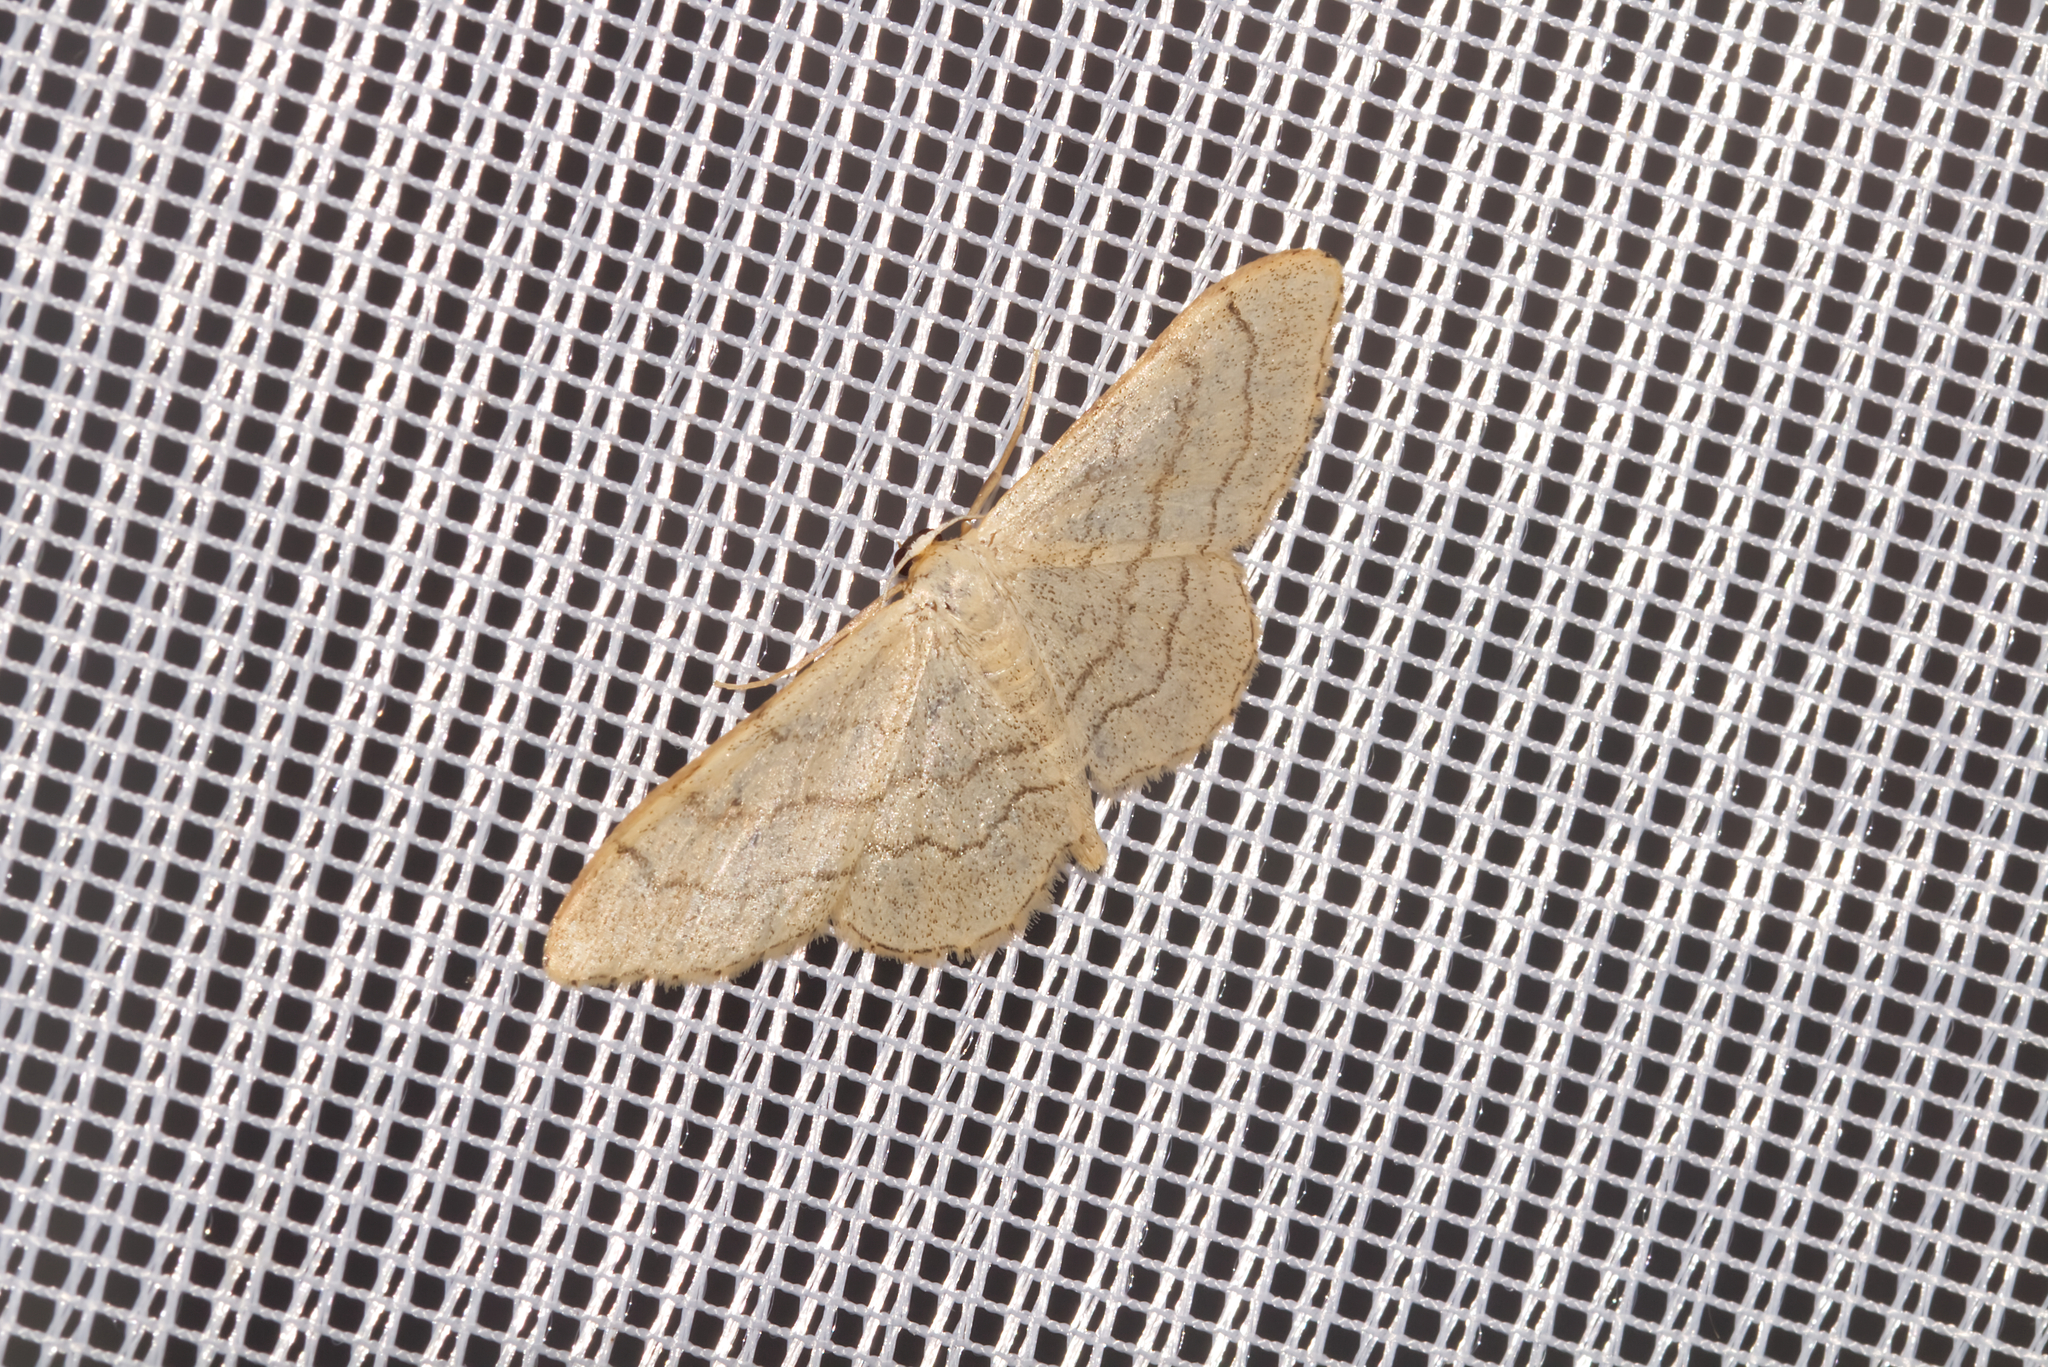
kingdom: Animalia
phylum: Arthropoda
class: Insecta
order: Lepidoptera
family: Geometridae
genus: Idaea
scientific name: Idaea aversata
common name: Riband wave
